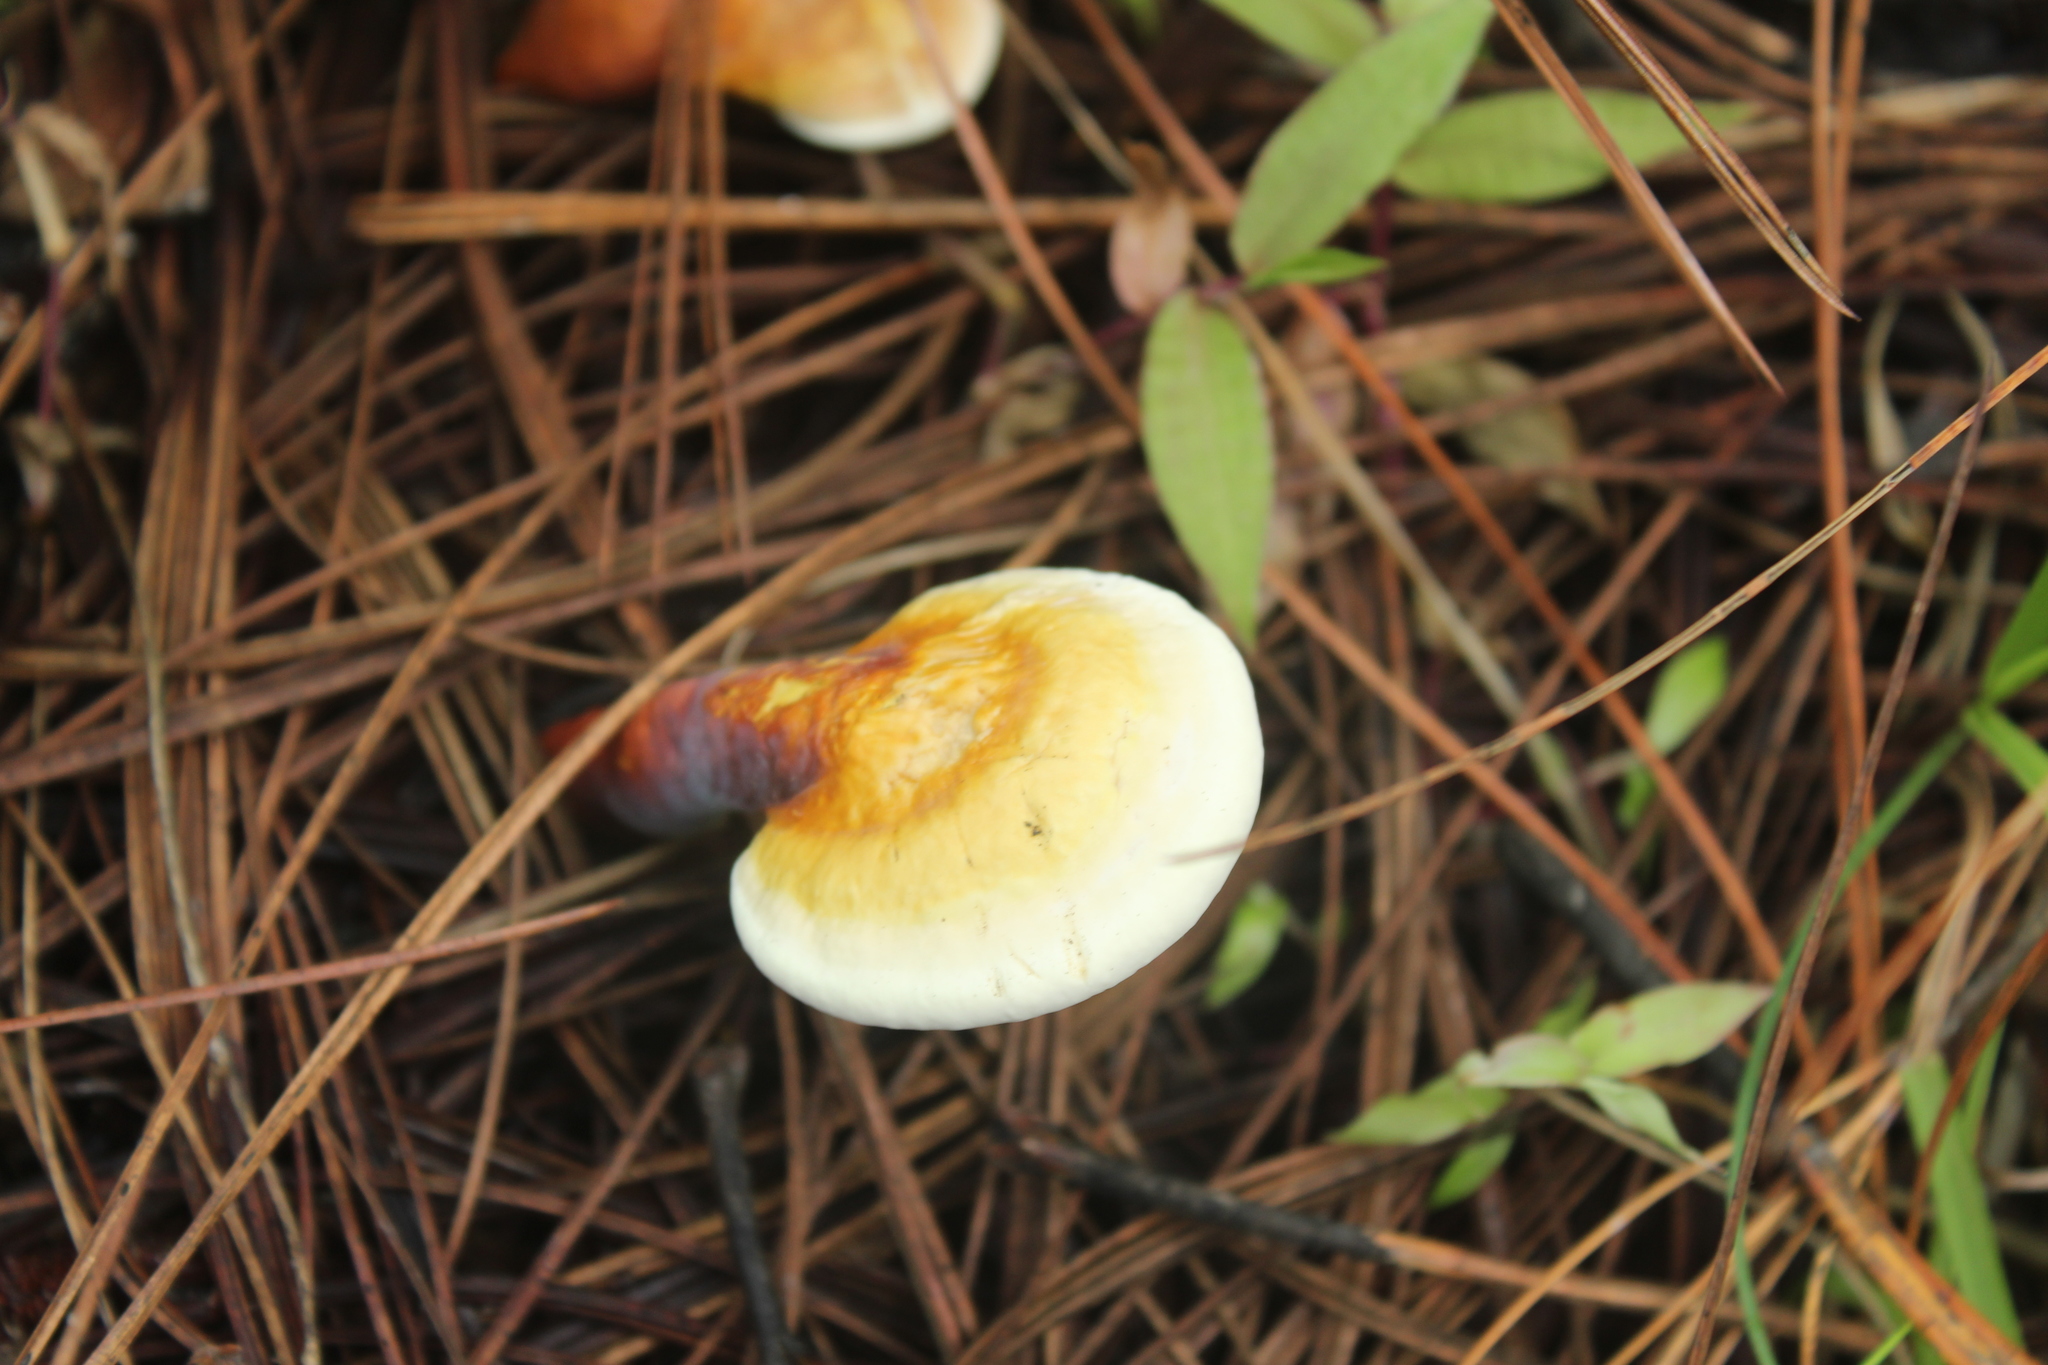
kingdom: Fungi
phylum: Basidiomycota
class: Agaricomycetes
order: Polyporales
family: Polyporaceae
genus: Ganoderma
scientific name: Ganoderma tsugae
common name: Hemlock varnish shelf
